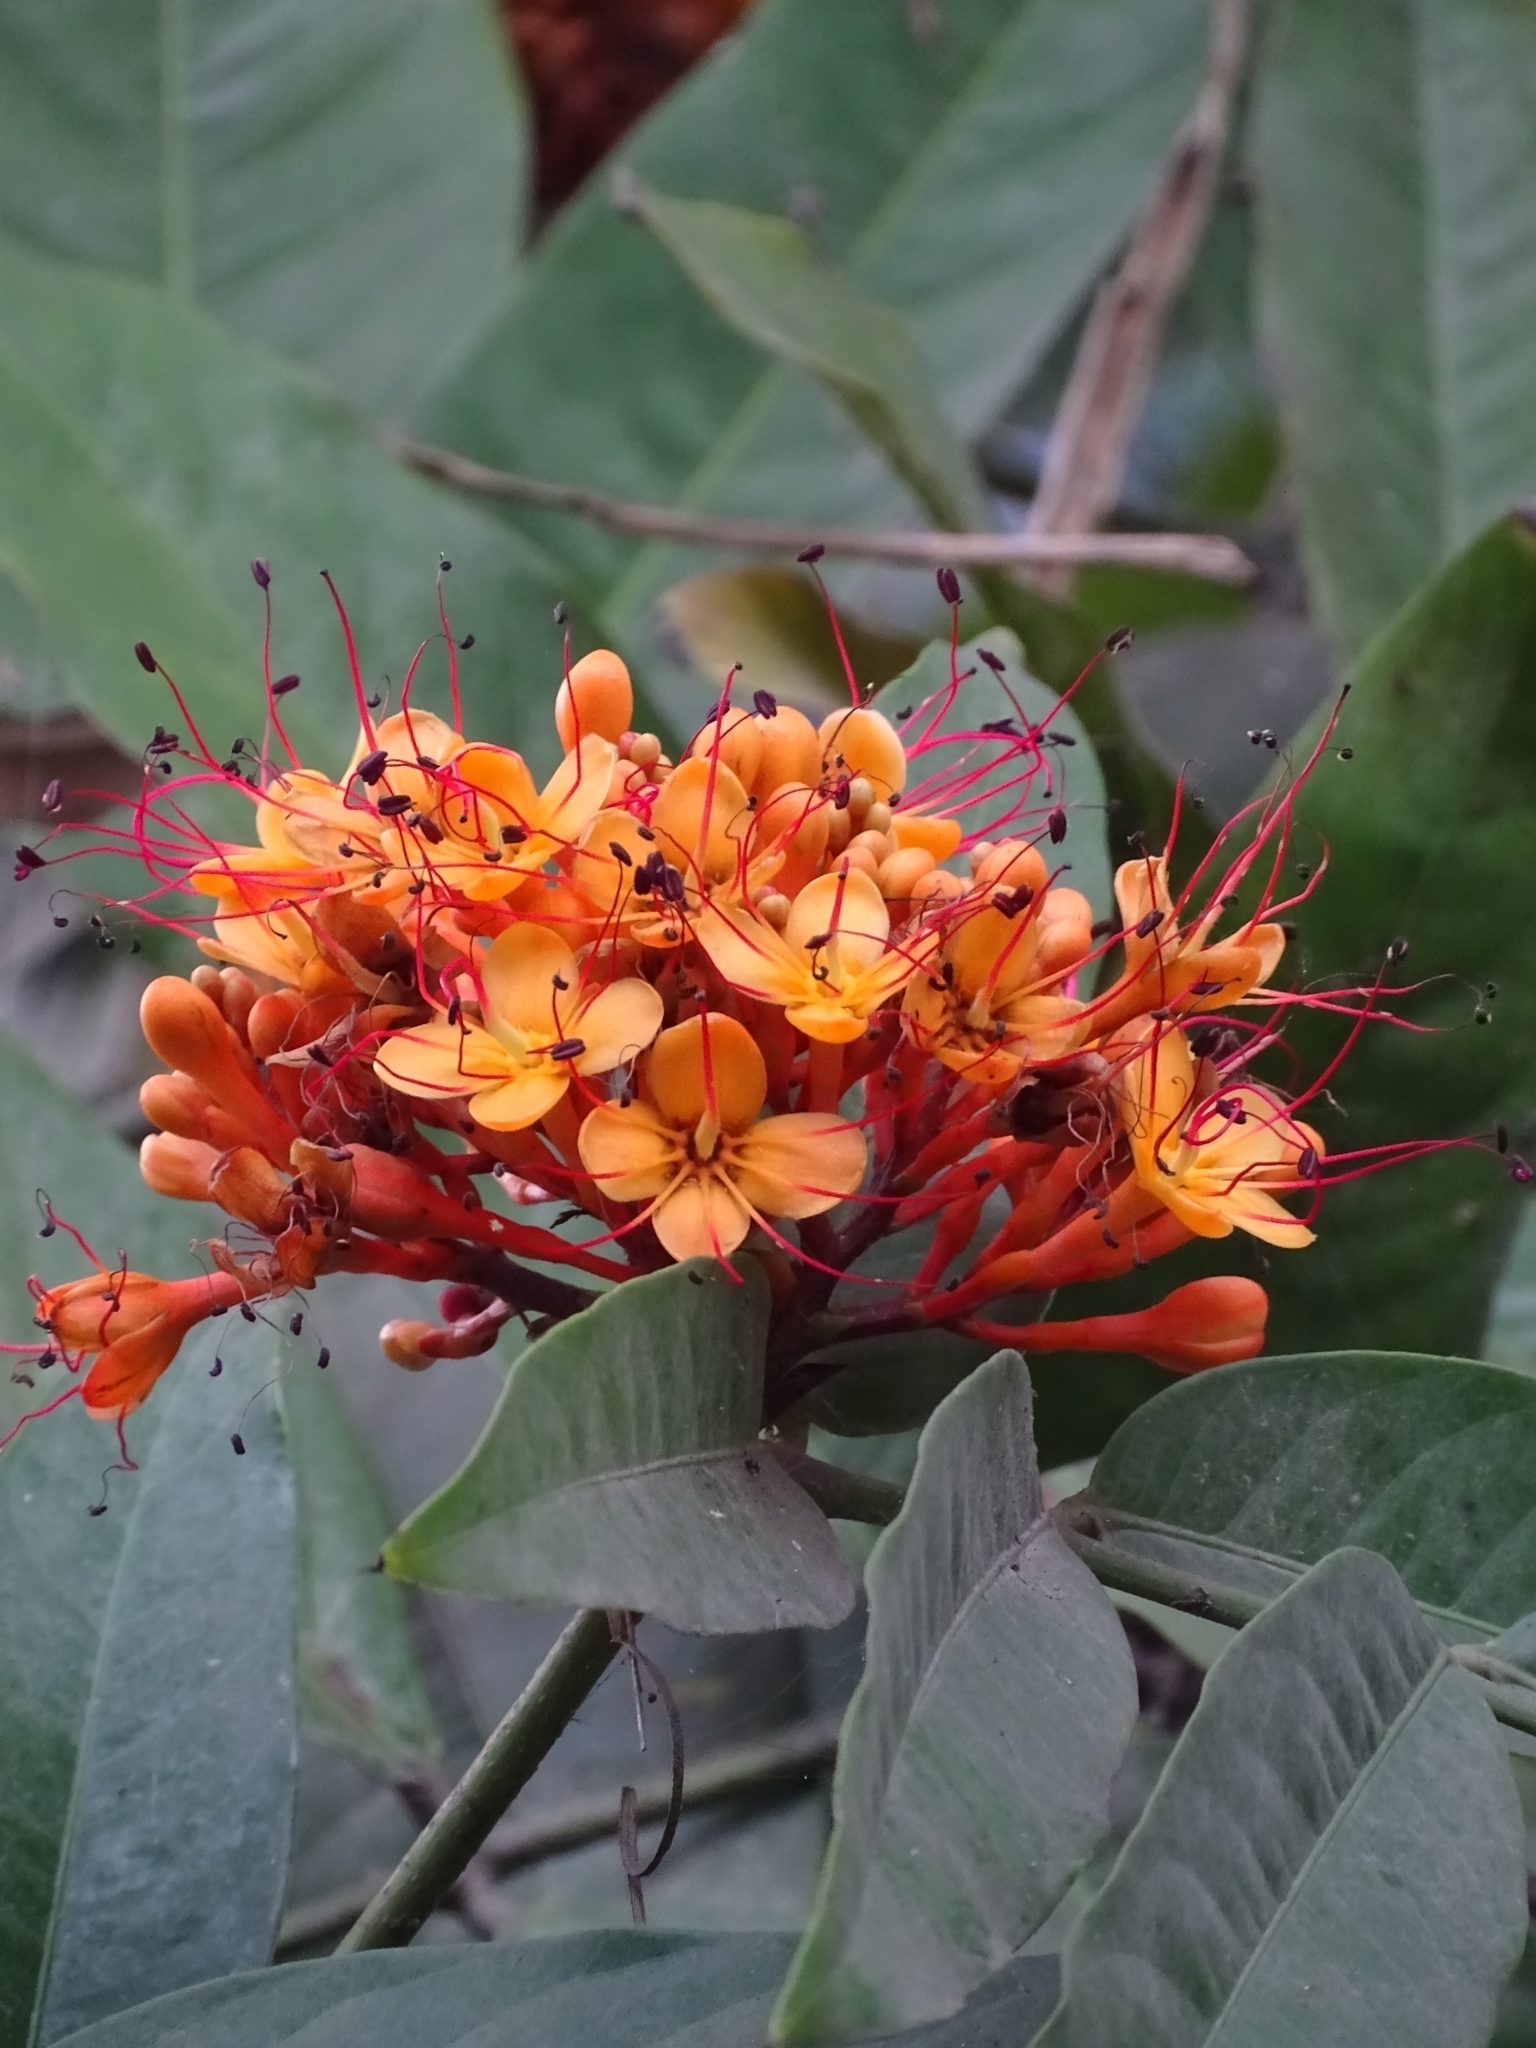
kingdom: Plantae
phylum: Tracheophyta
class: Magnoliopsida
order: Fabales
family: Fabaceae
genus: Saraca
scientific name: Saraca asoca
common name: Asoka-tree
